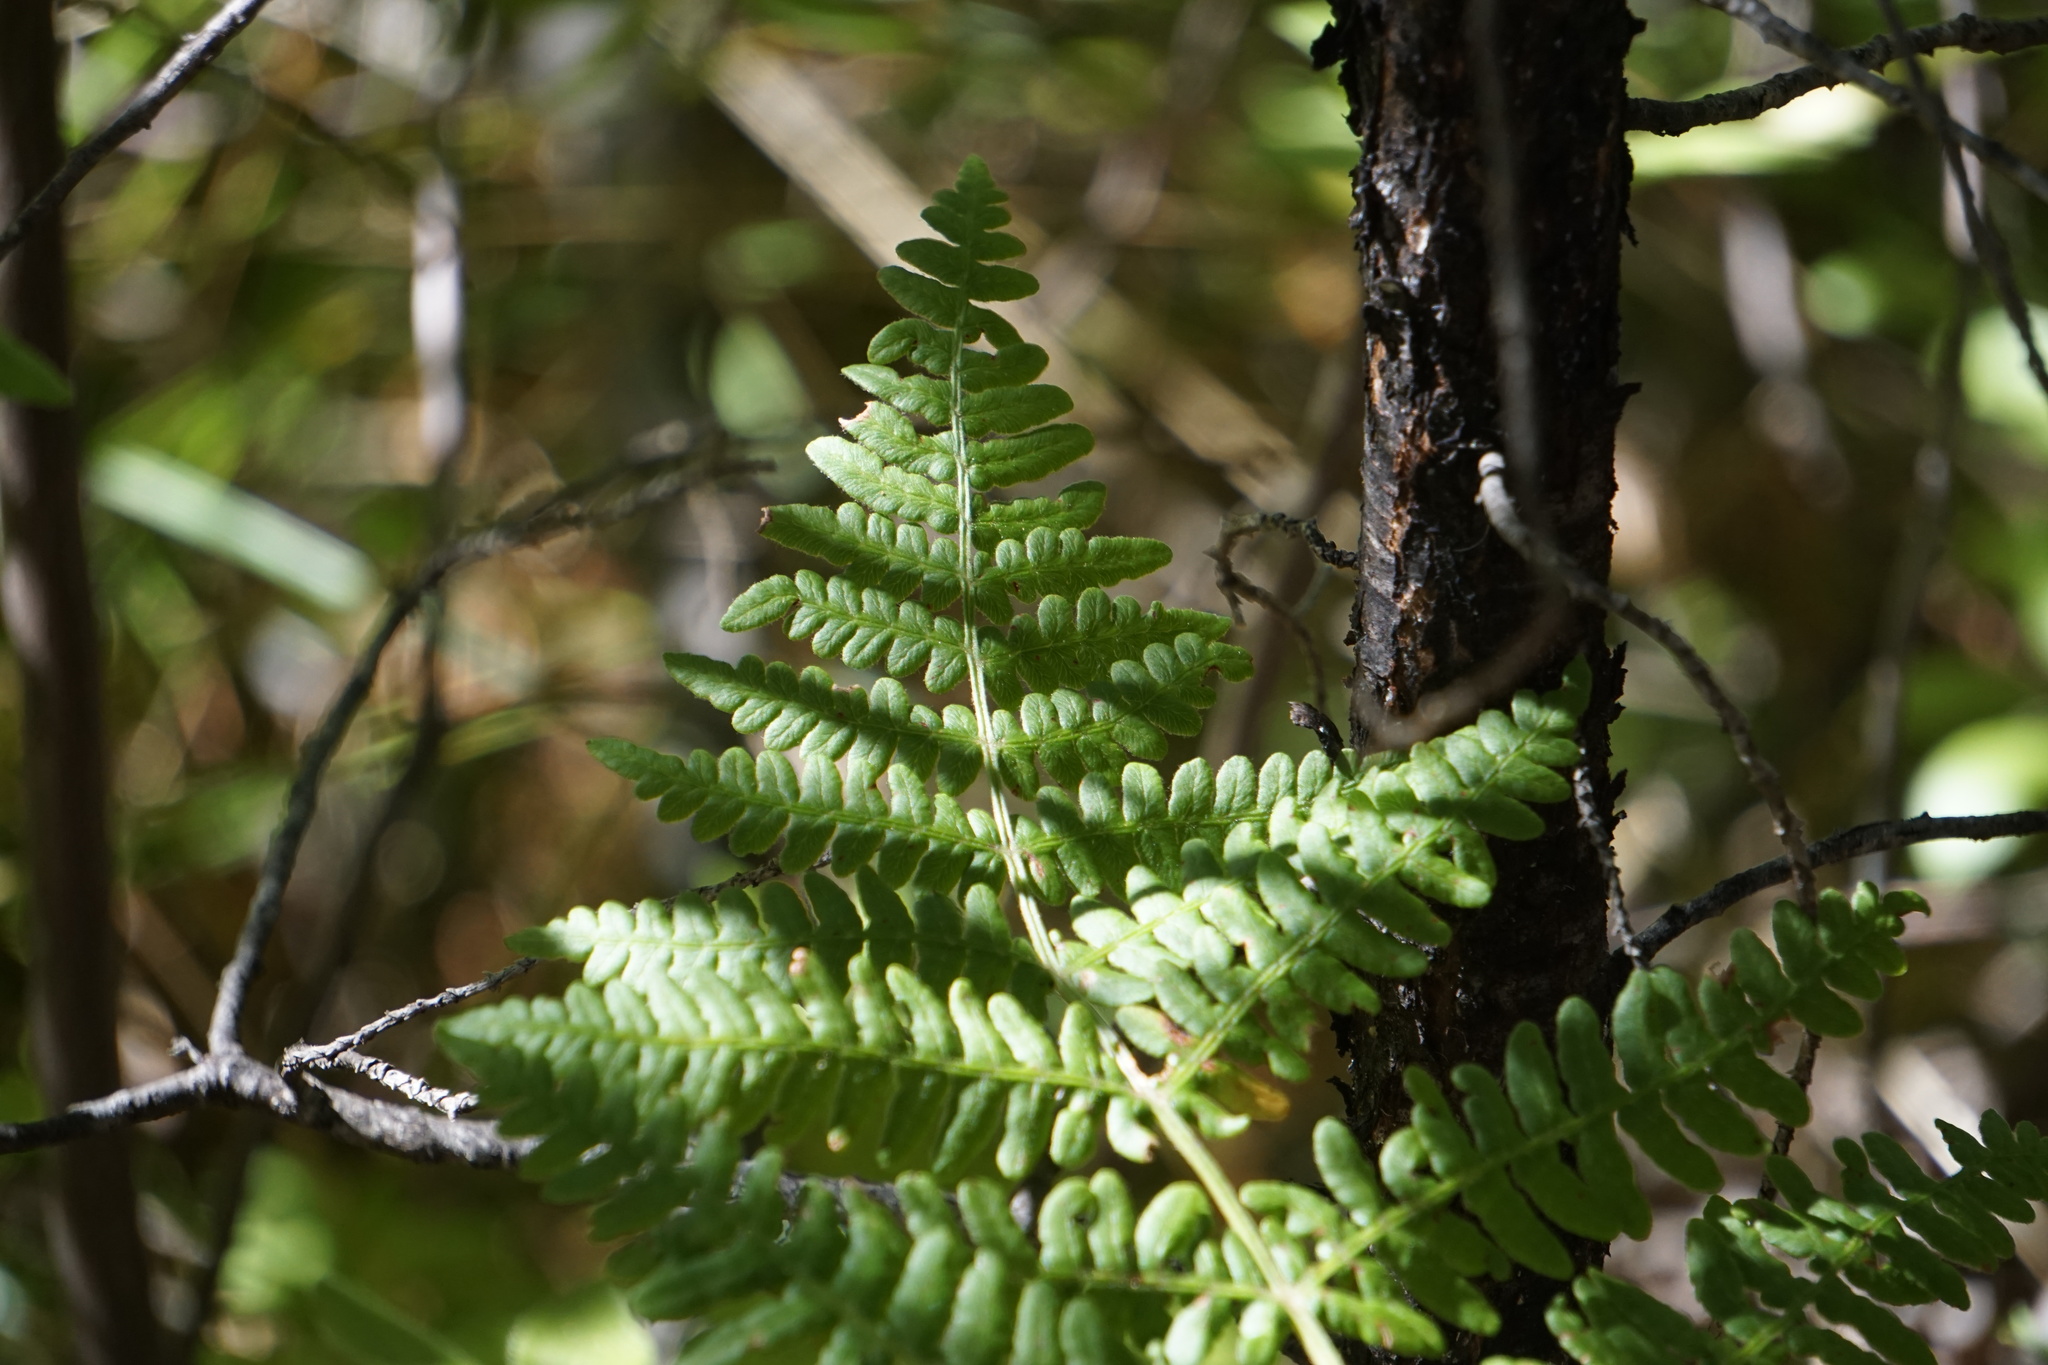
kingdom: Plantae
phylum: Tracheophyta
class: Polypodiopsida
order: Polypodiales
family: Dennstaedtiaceae
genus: Pteridium
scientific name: Pteridium aquilinum
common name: Bracken
